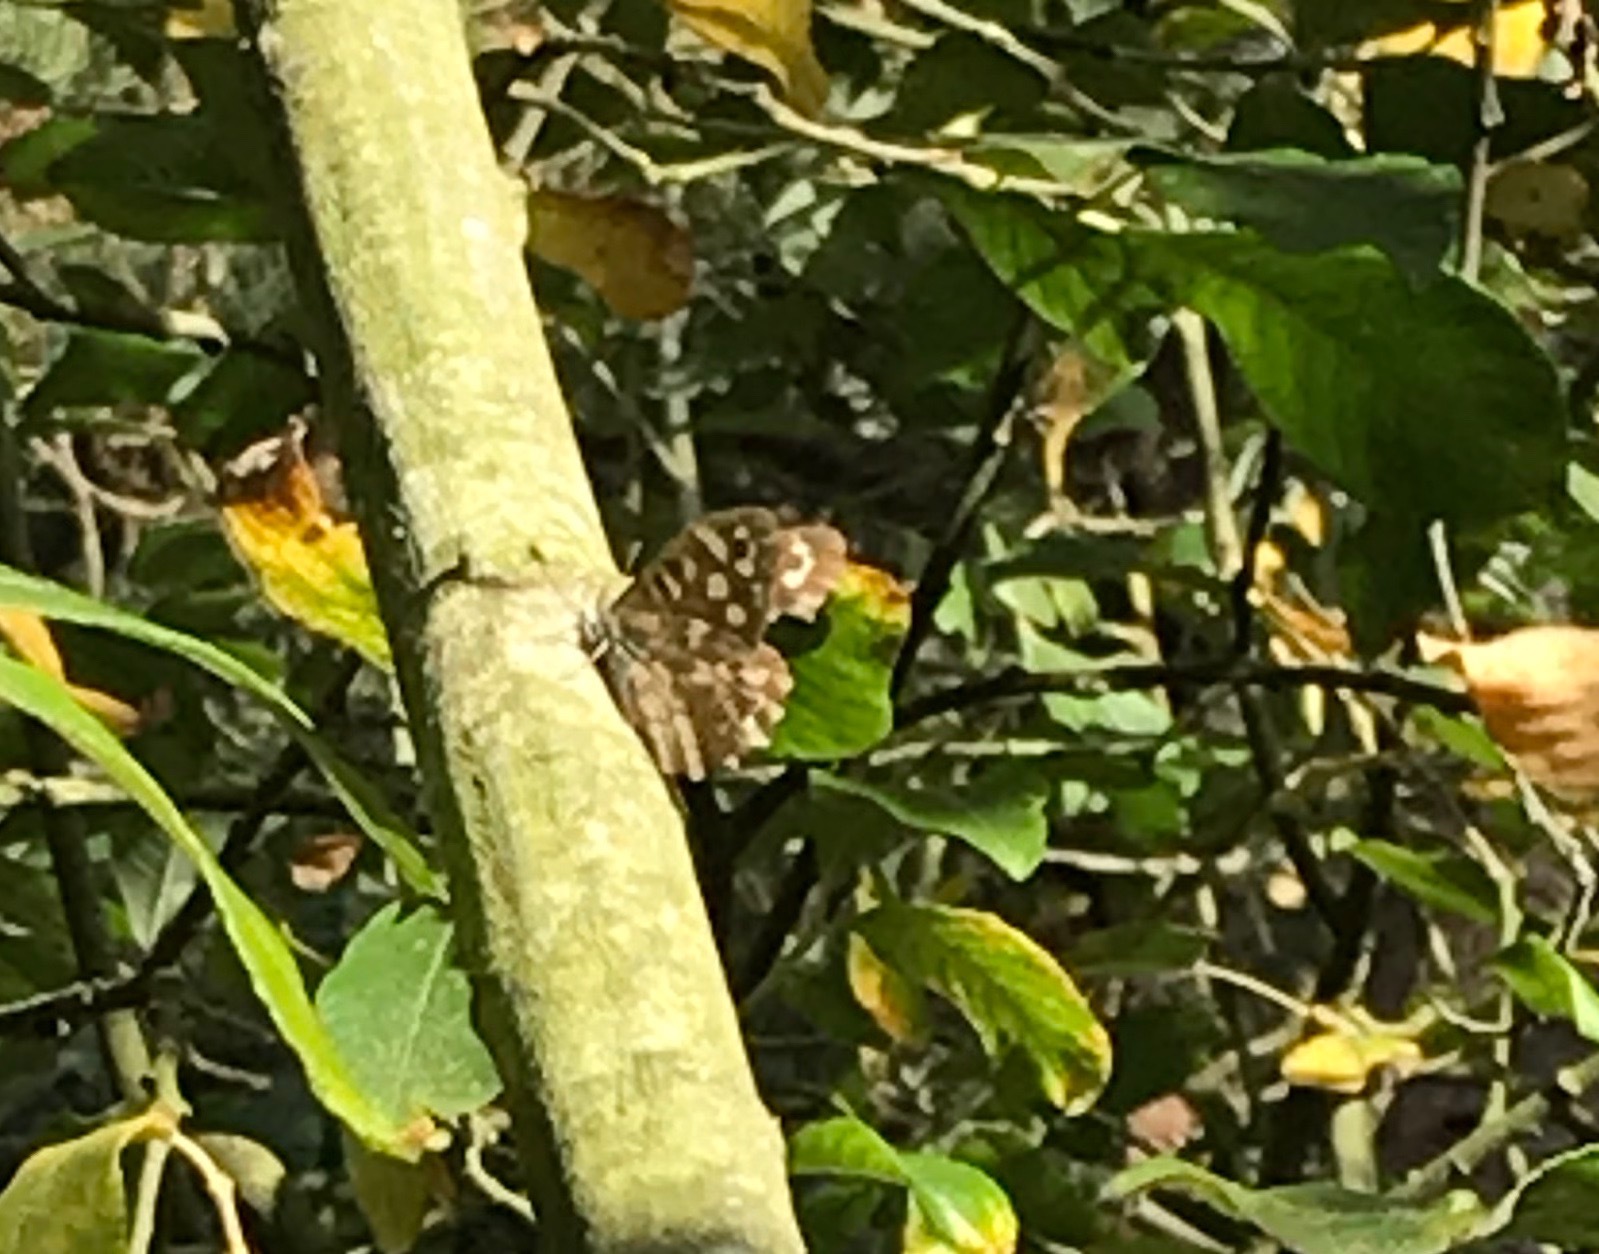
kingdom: Animalia
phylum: Arthropoda
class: Insecta
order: Lepidoptera
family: Nymphalidae
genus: Pararge
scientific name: Pararge aegeria
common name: Speckled wood
